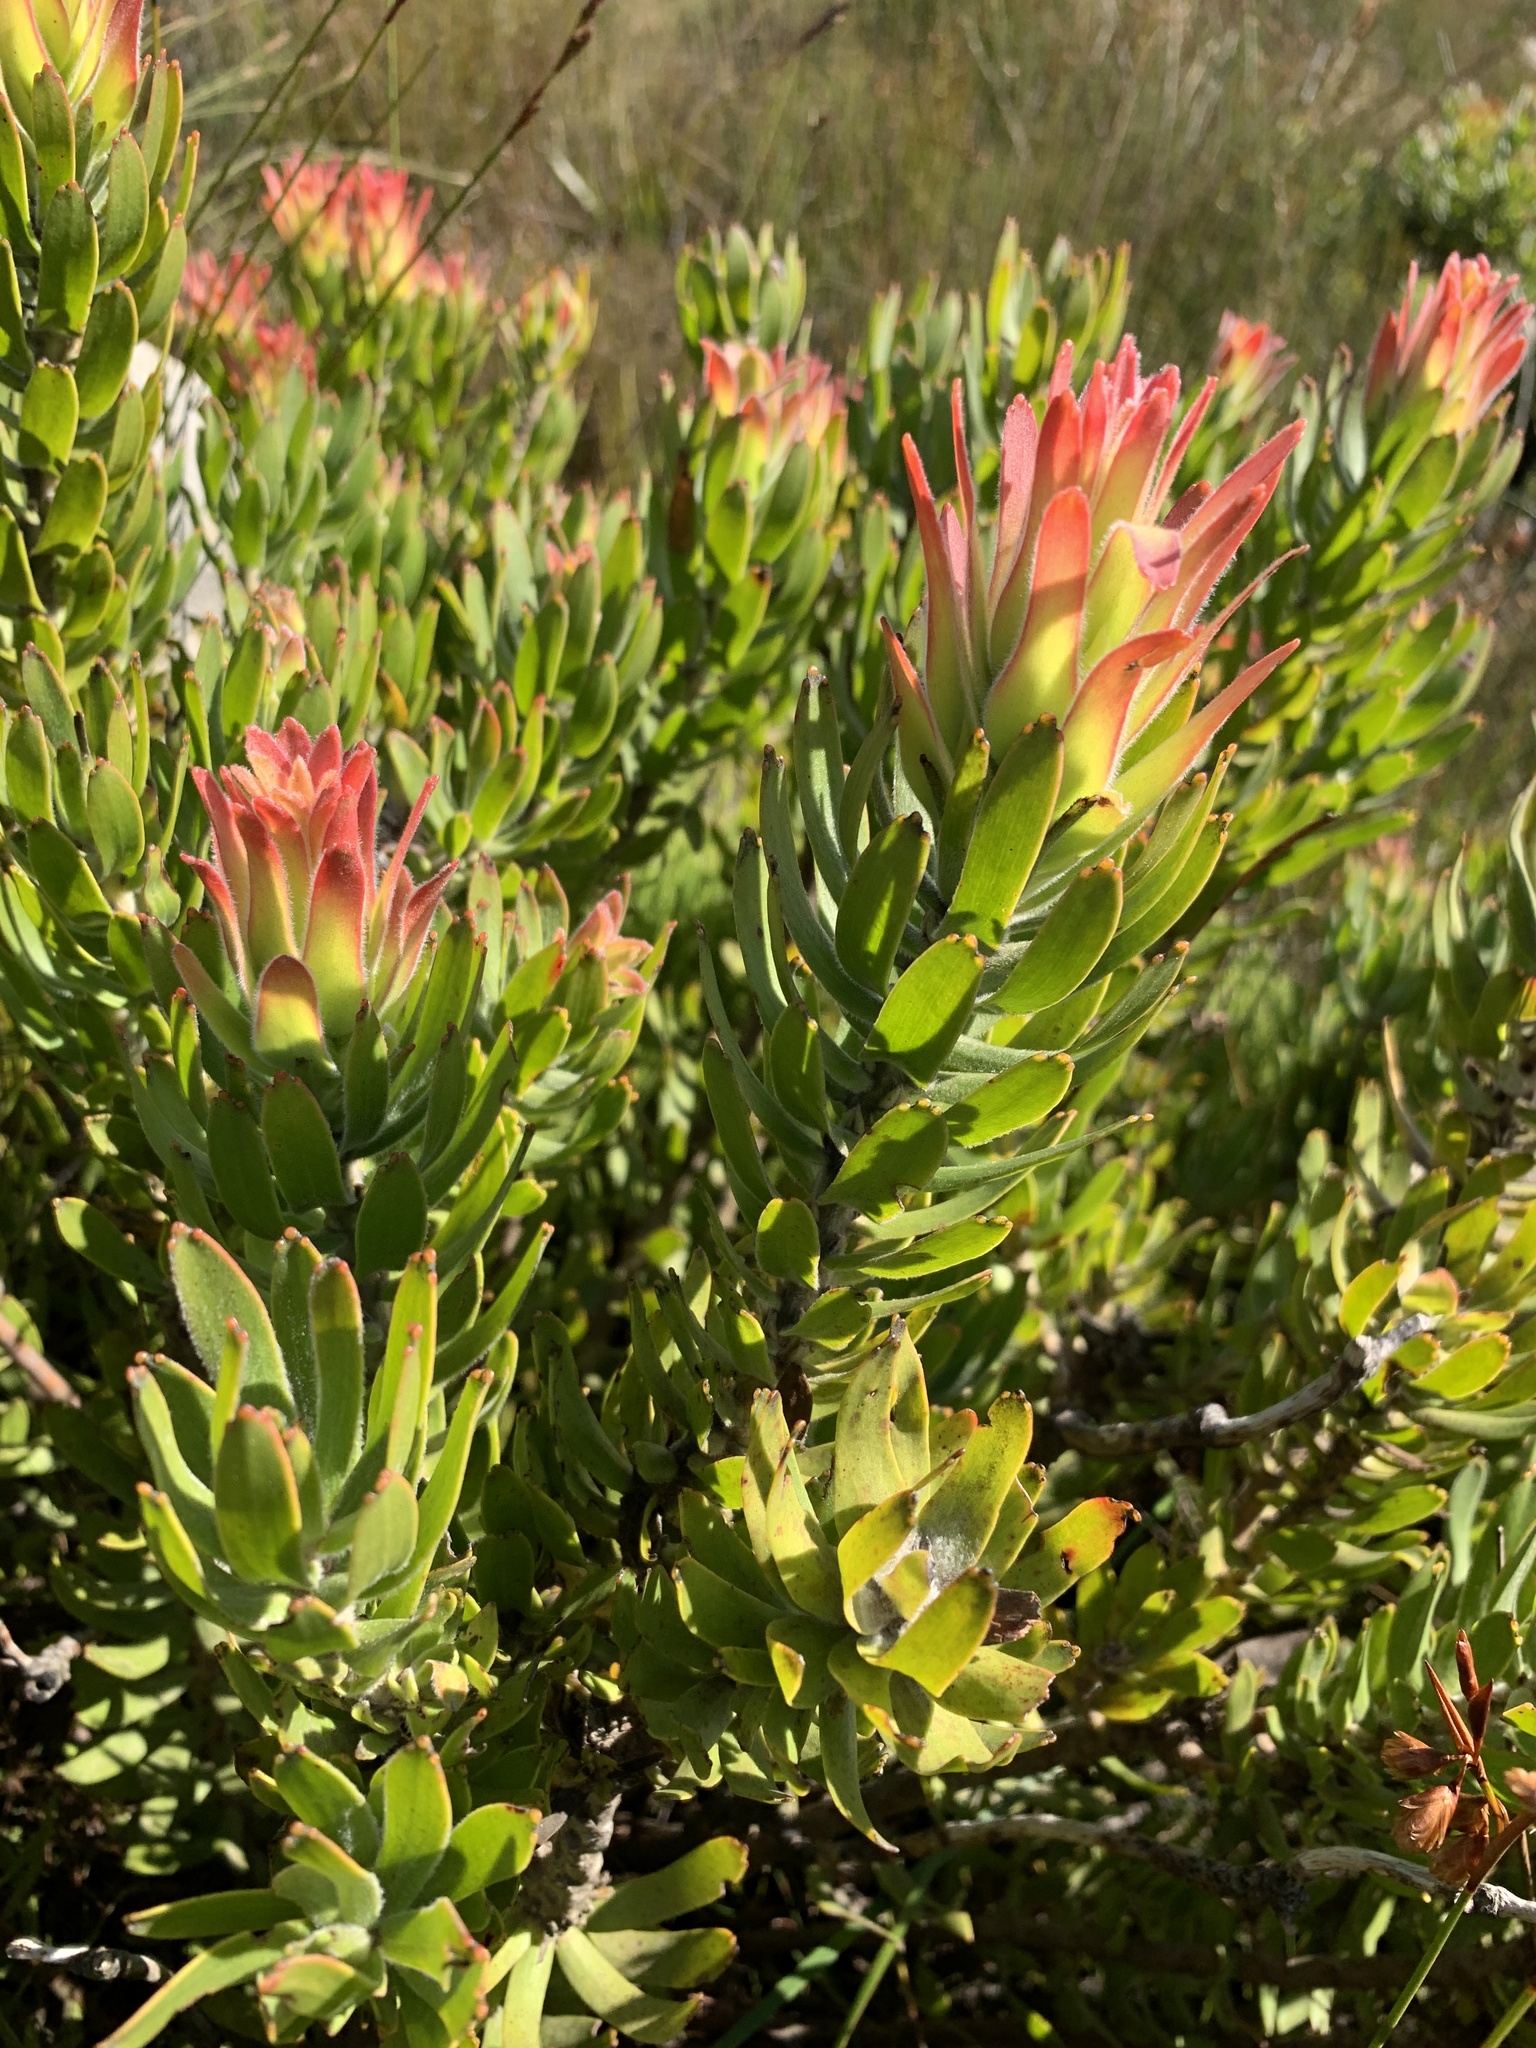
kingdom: Plantae
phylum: Tracheophyta
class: Magnoliopsida
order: Proteales
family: Proteaceae
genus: Mimetes
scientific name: Mimetes cucullatus
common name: Common pagoda
